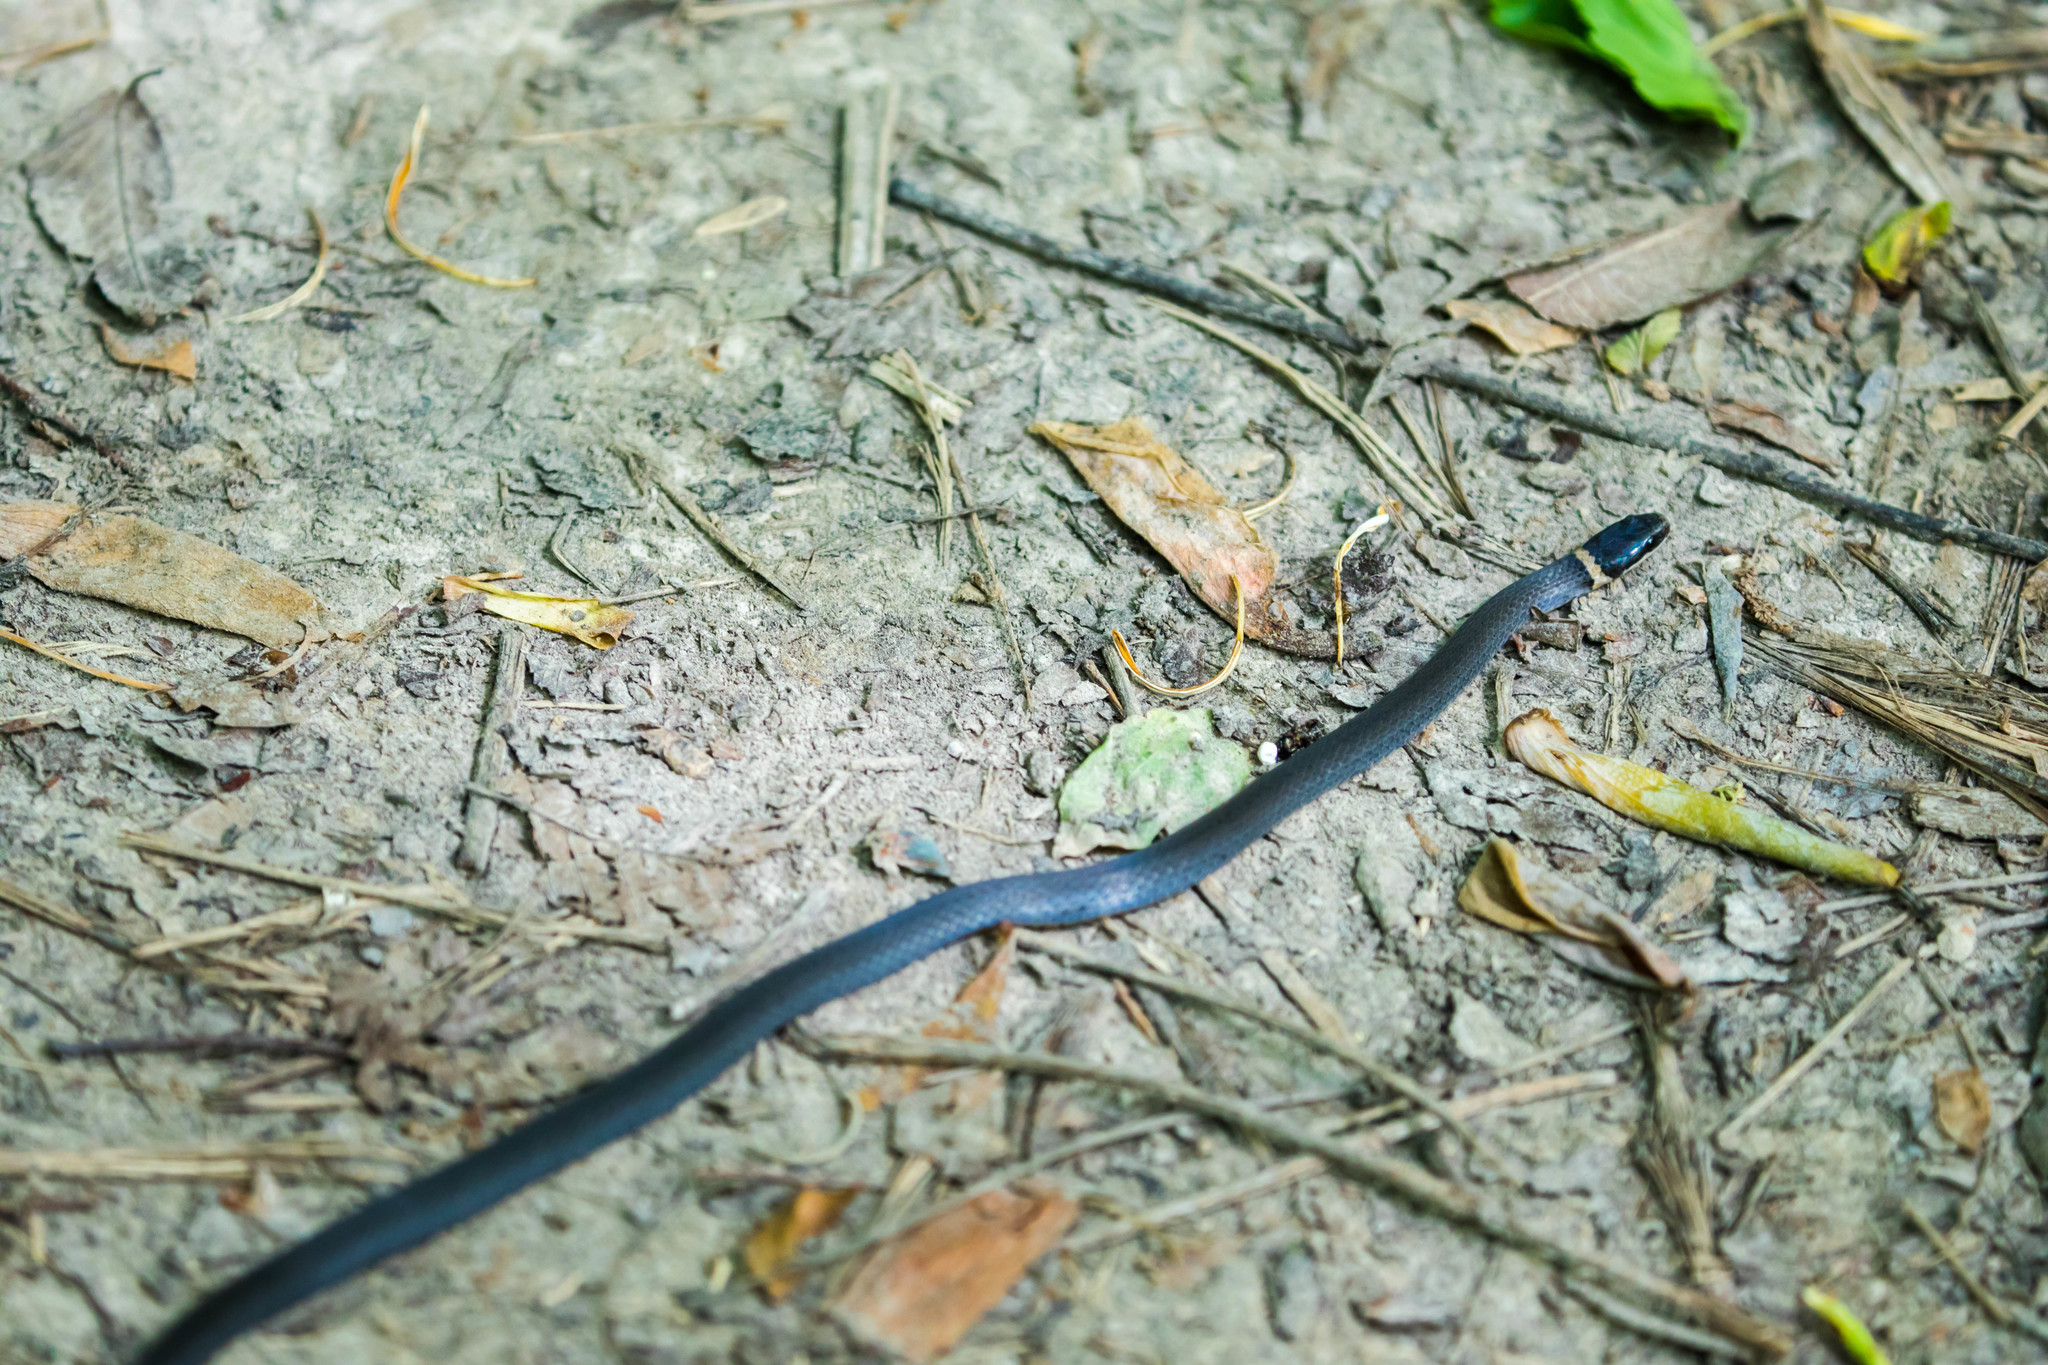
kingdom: Animalia
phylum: Chordata
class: Squamata
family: Colubridae
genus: Diadophis
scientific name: Diadophis punctatus
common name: Ringneck snake
